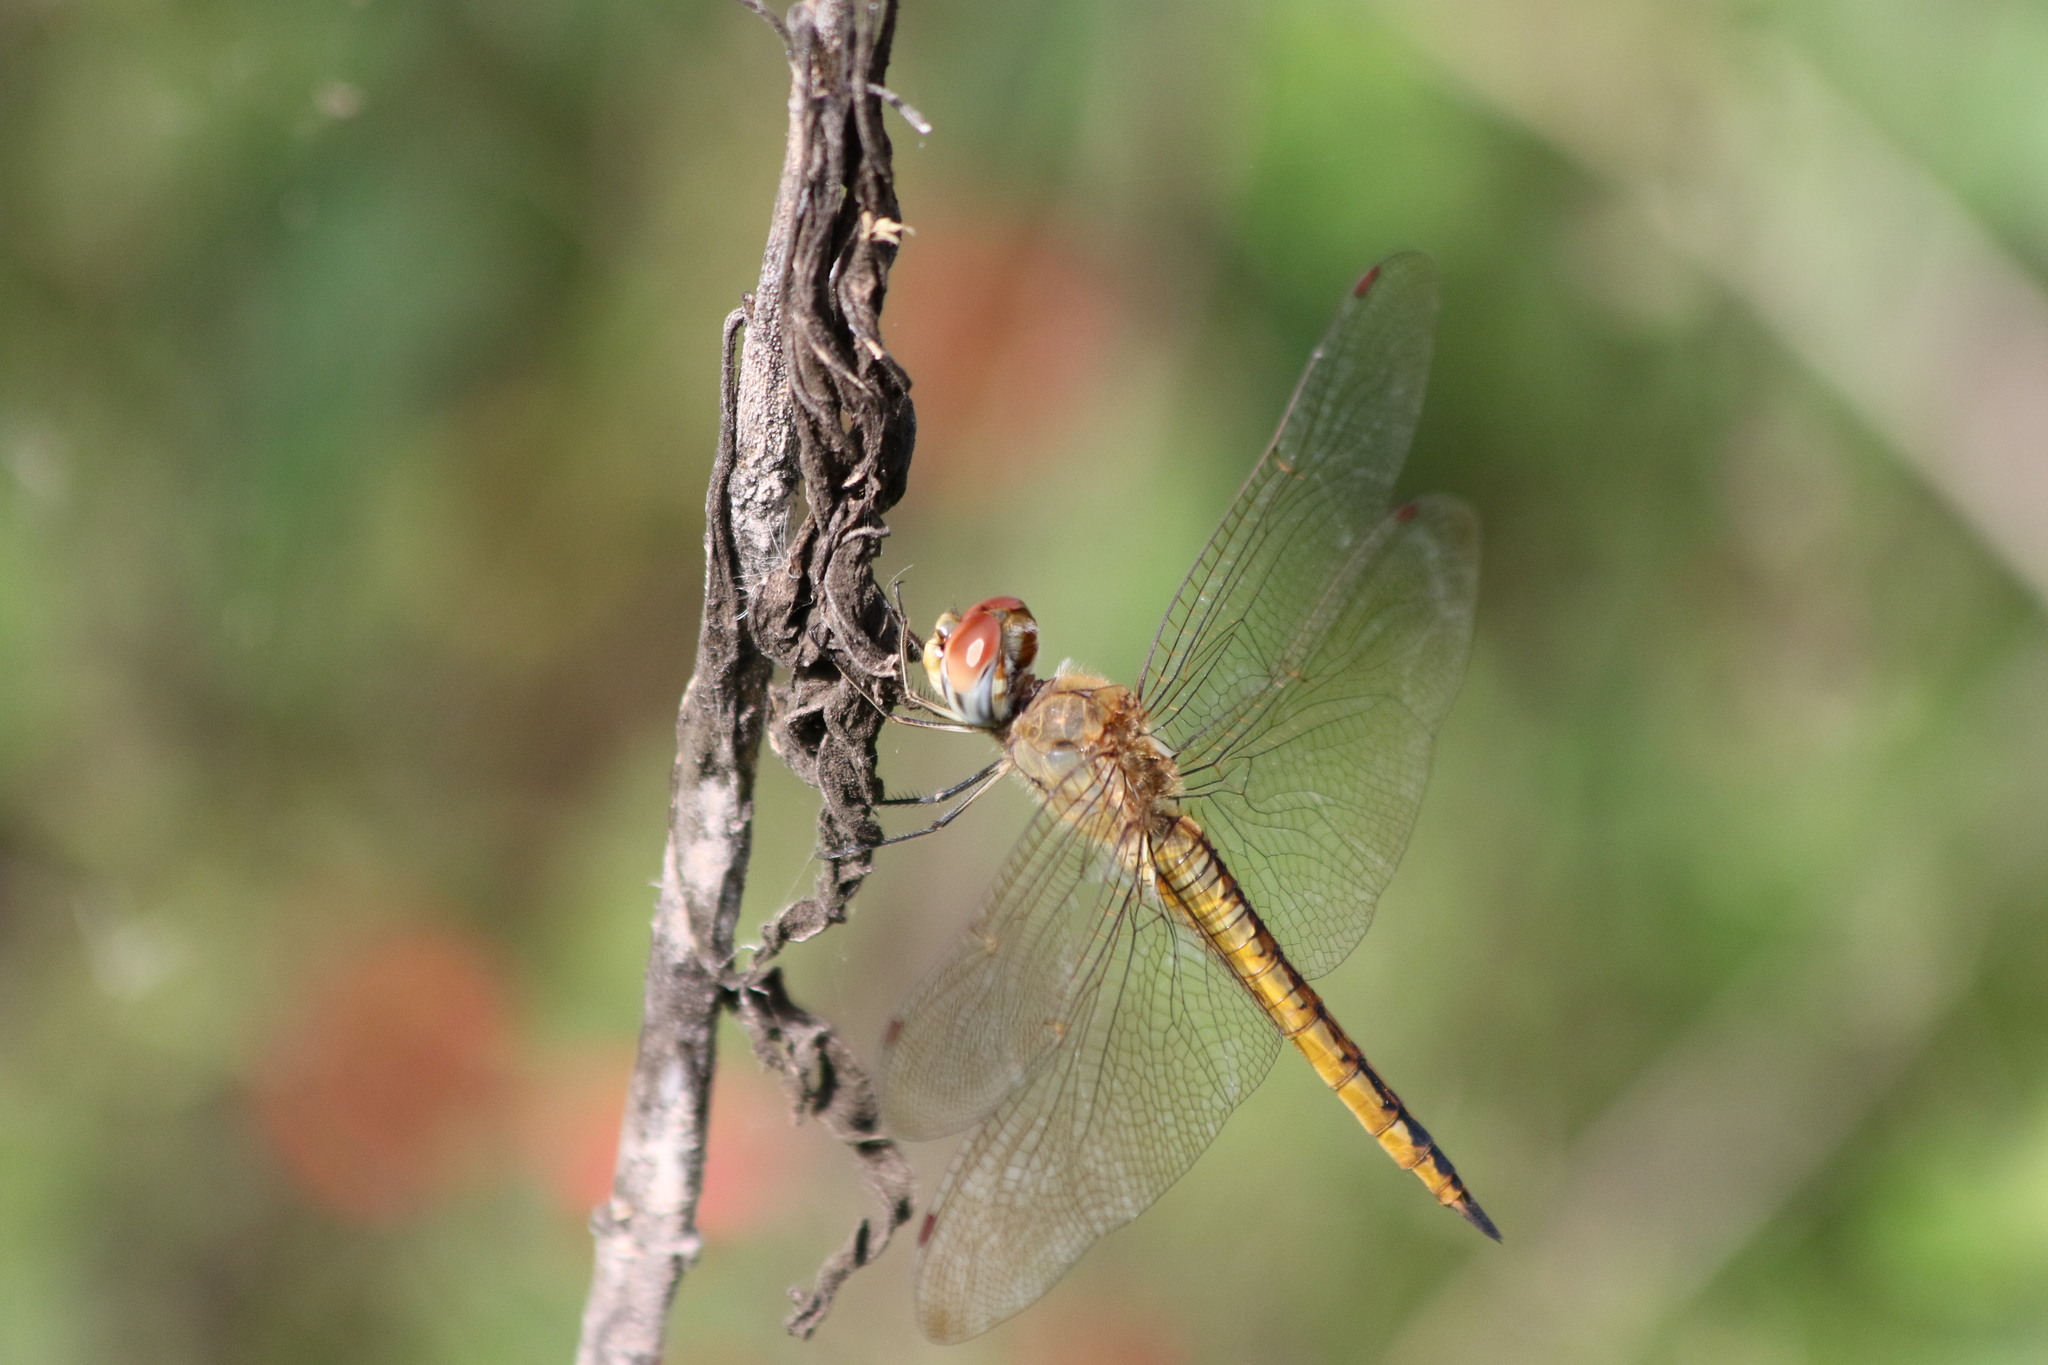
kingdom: Animalia
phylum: Arthropoda
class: Insecta
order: Odonata
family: Libellulidae
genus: Pantala
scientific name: Pantala flavescens
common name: Wandering glider
